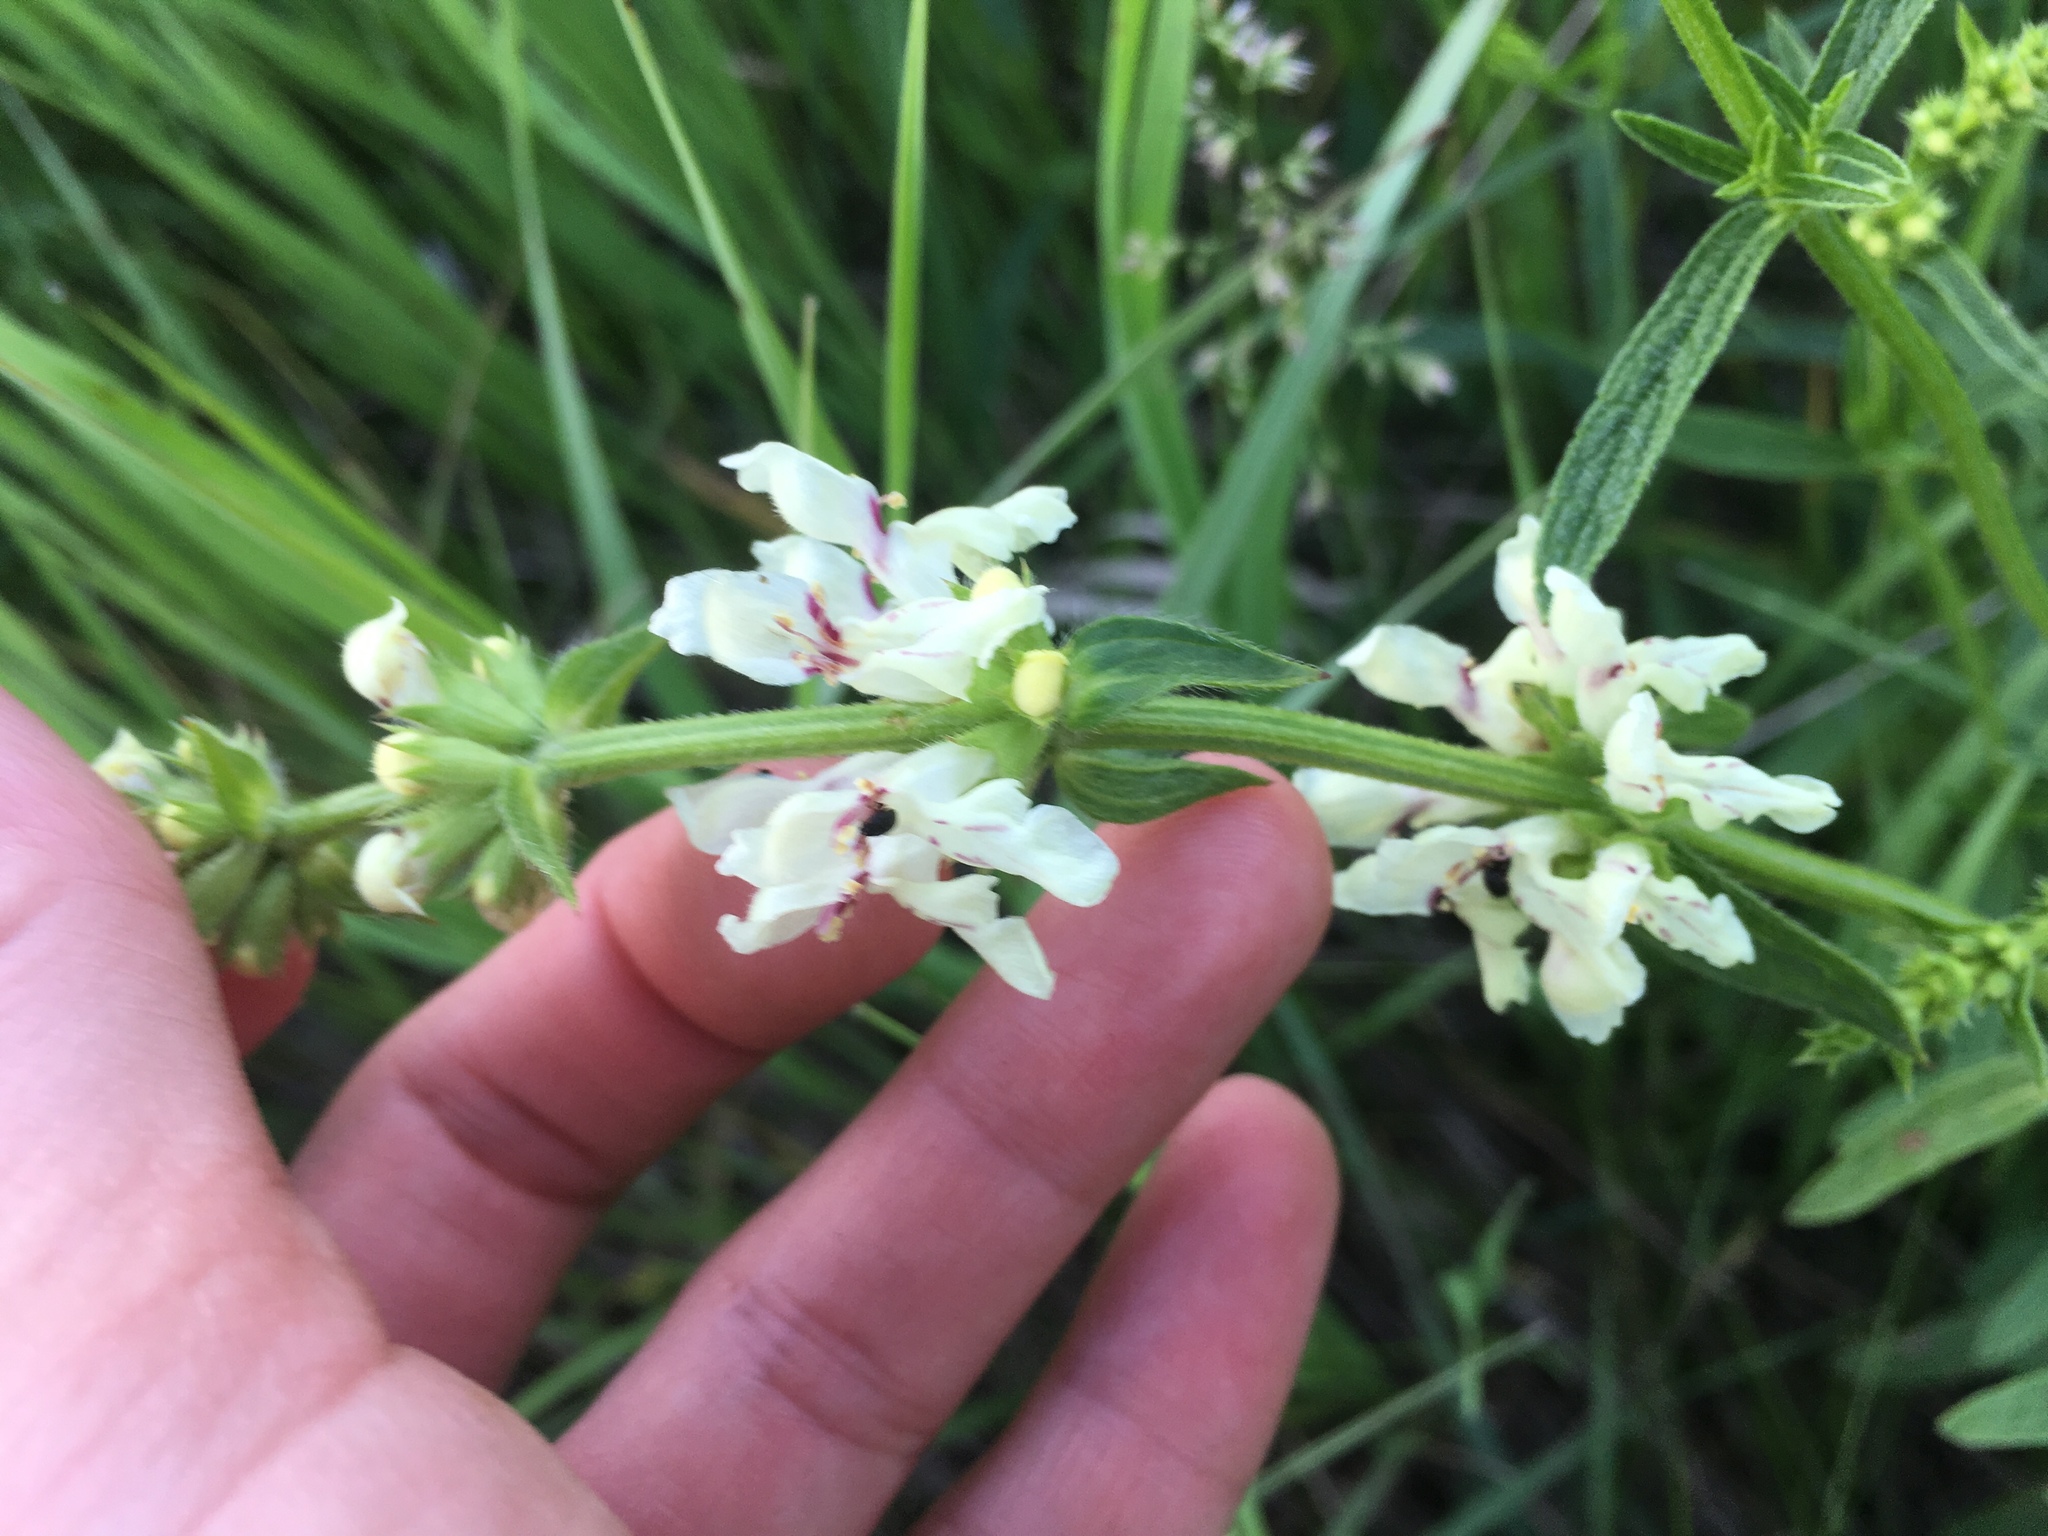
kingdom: Plantae
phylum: Tracheophyta
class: Magnoliopsida
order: Lamiales
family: Lamiaceae
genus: Stachys
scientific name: Stachys recta
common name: Perennial yellow-woundwort
